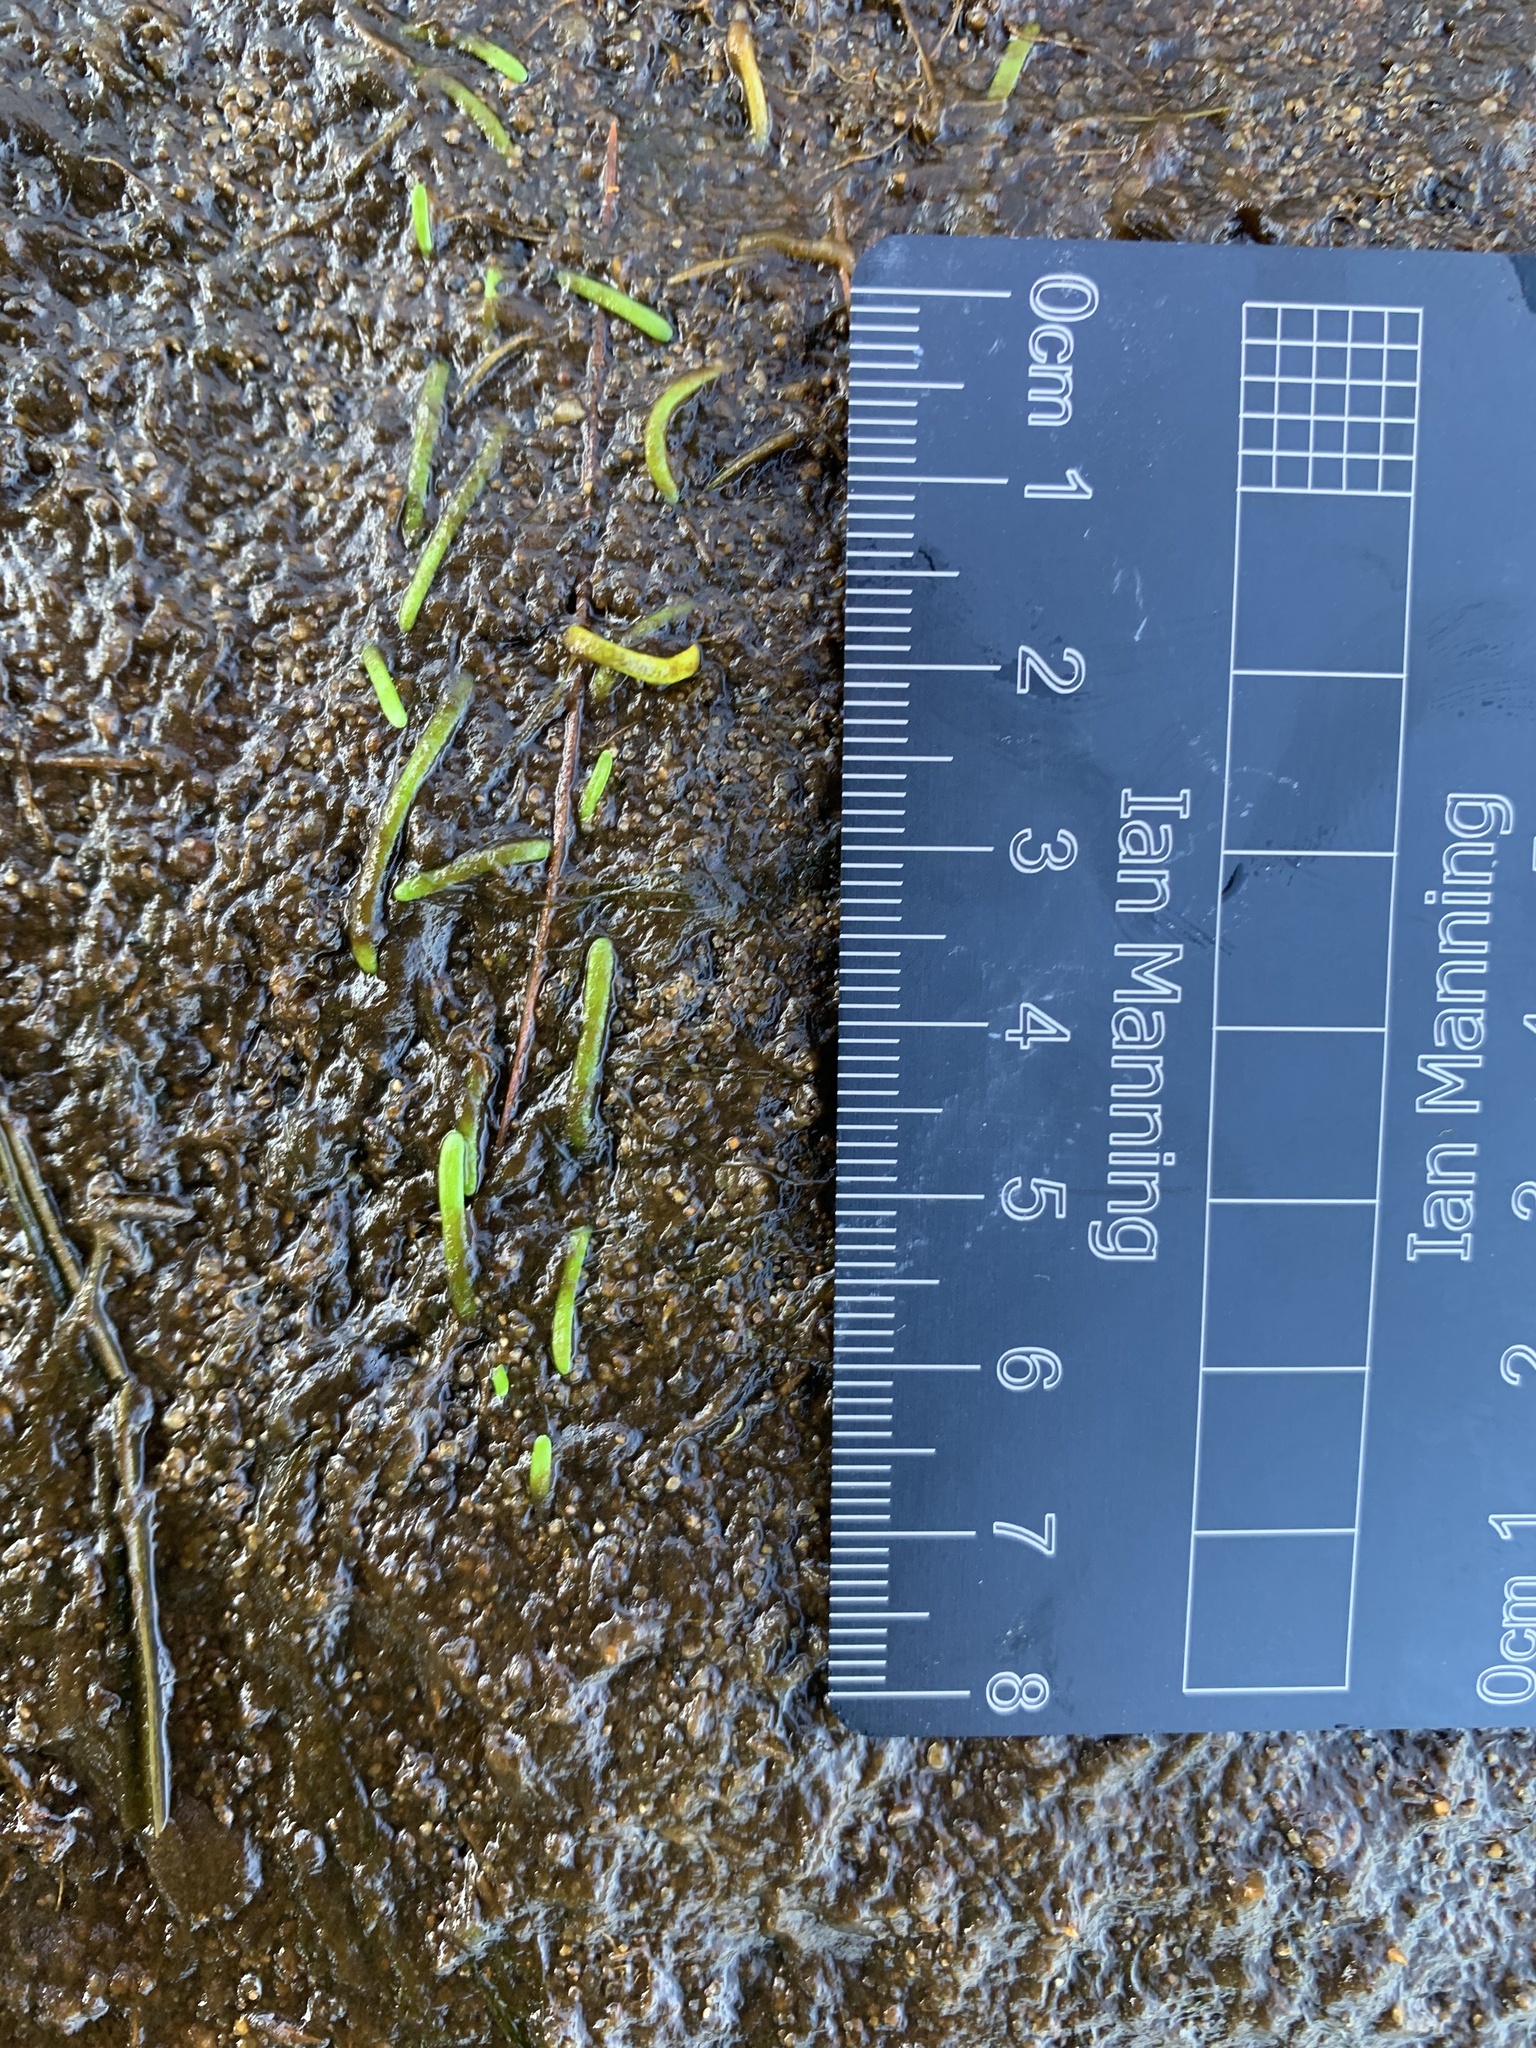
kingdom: Plantae
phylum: Tracheophyta
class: Magnoliopsida
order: Apiales
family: Apiaceae
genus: Lilaeopsis
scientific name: Lilaeopsis chinensis
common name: Eastern grasswort
